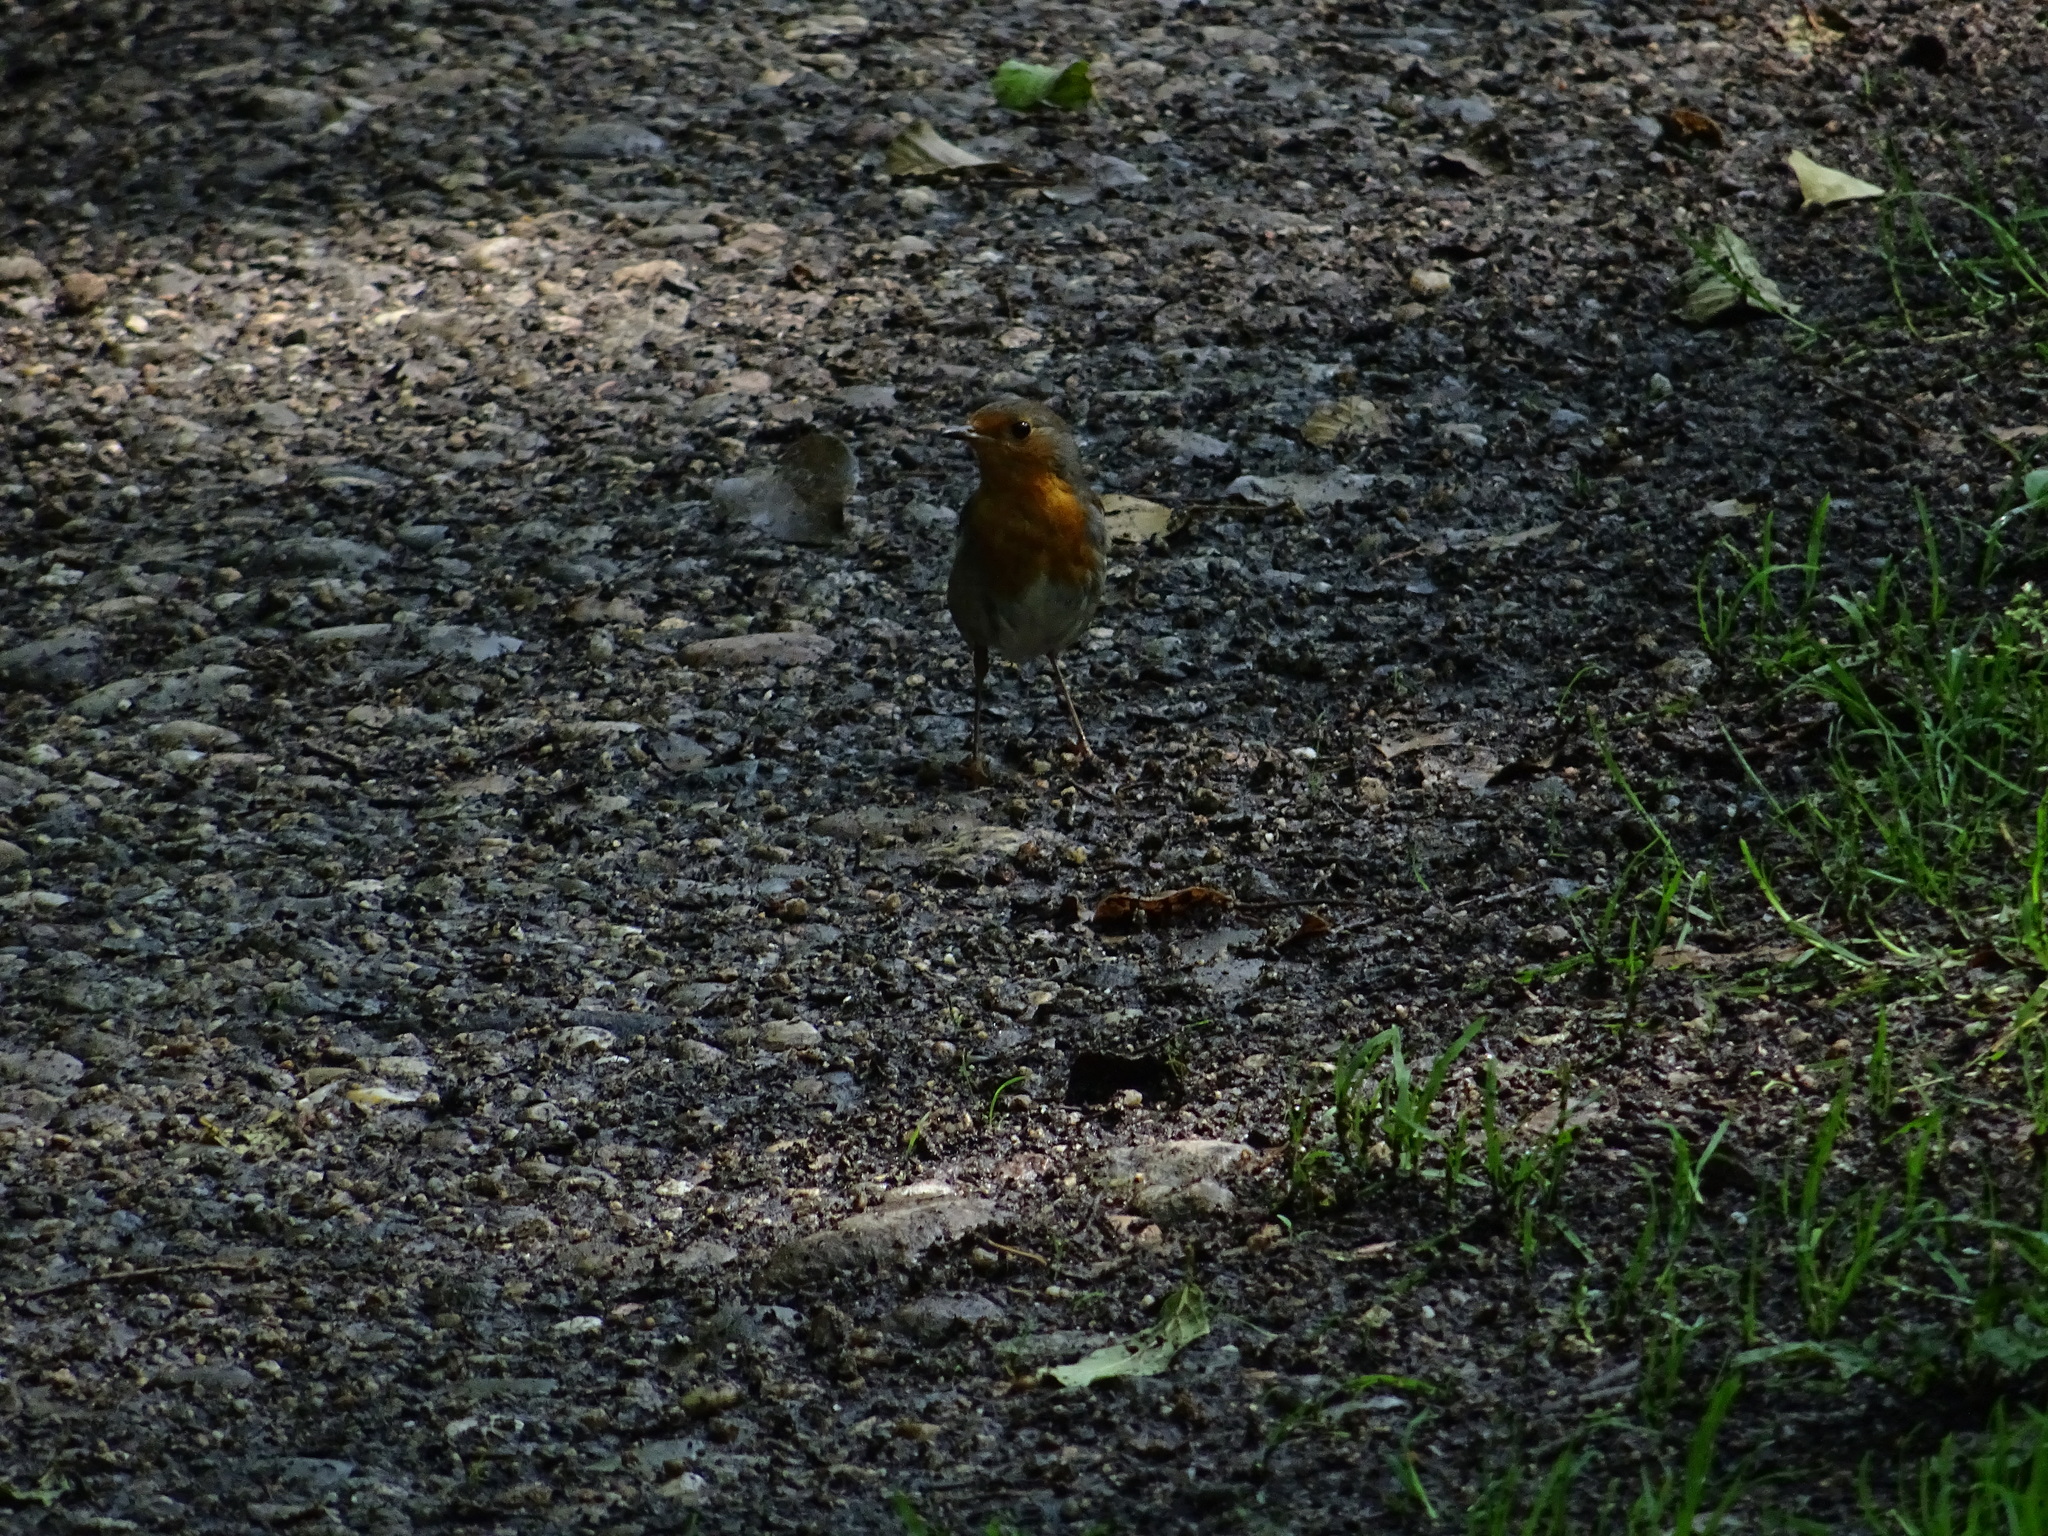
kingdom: Animalia
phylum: Chordata
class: Aves
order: Passeriformes
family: Muscicapidae
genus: Erithacus
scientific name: Erithacus rubecula
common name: European robin
